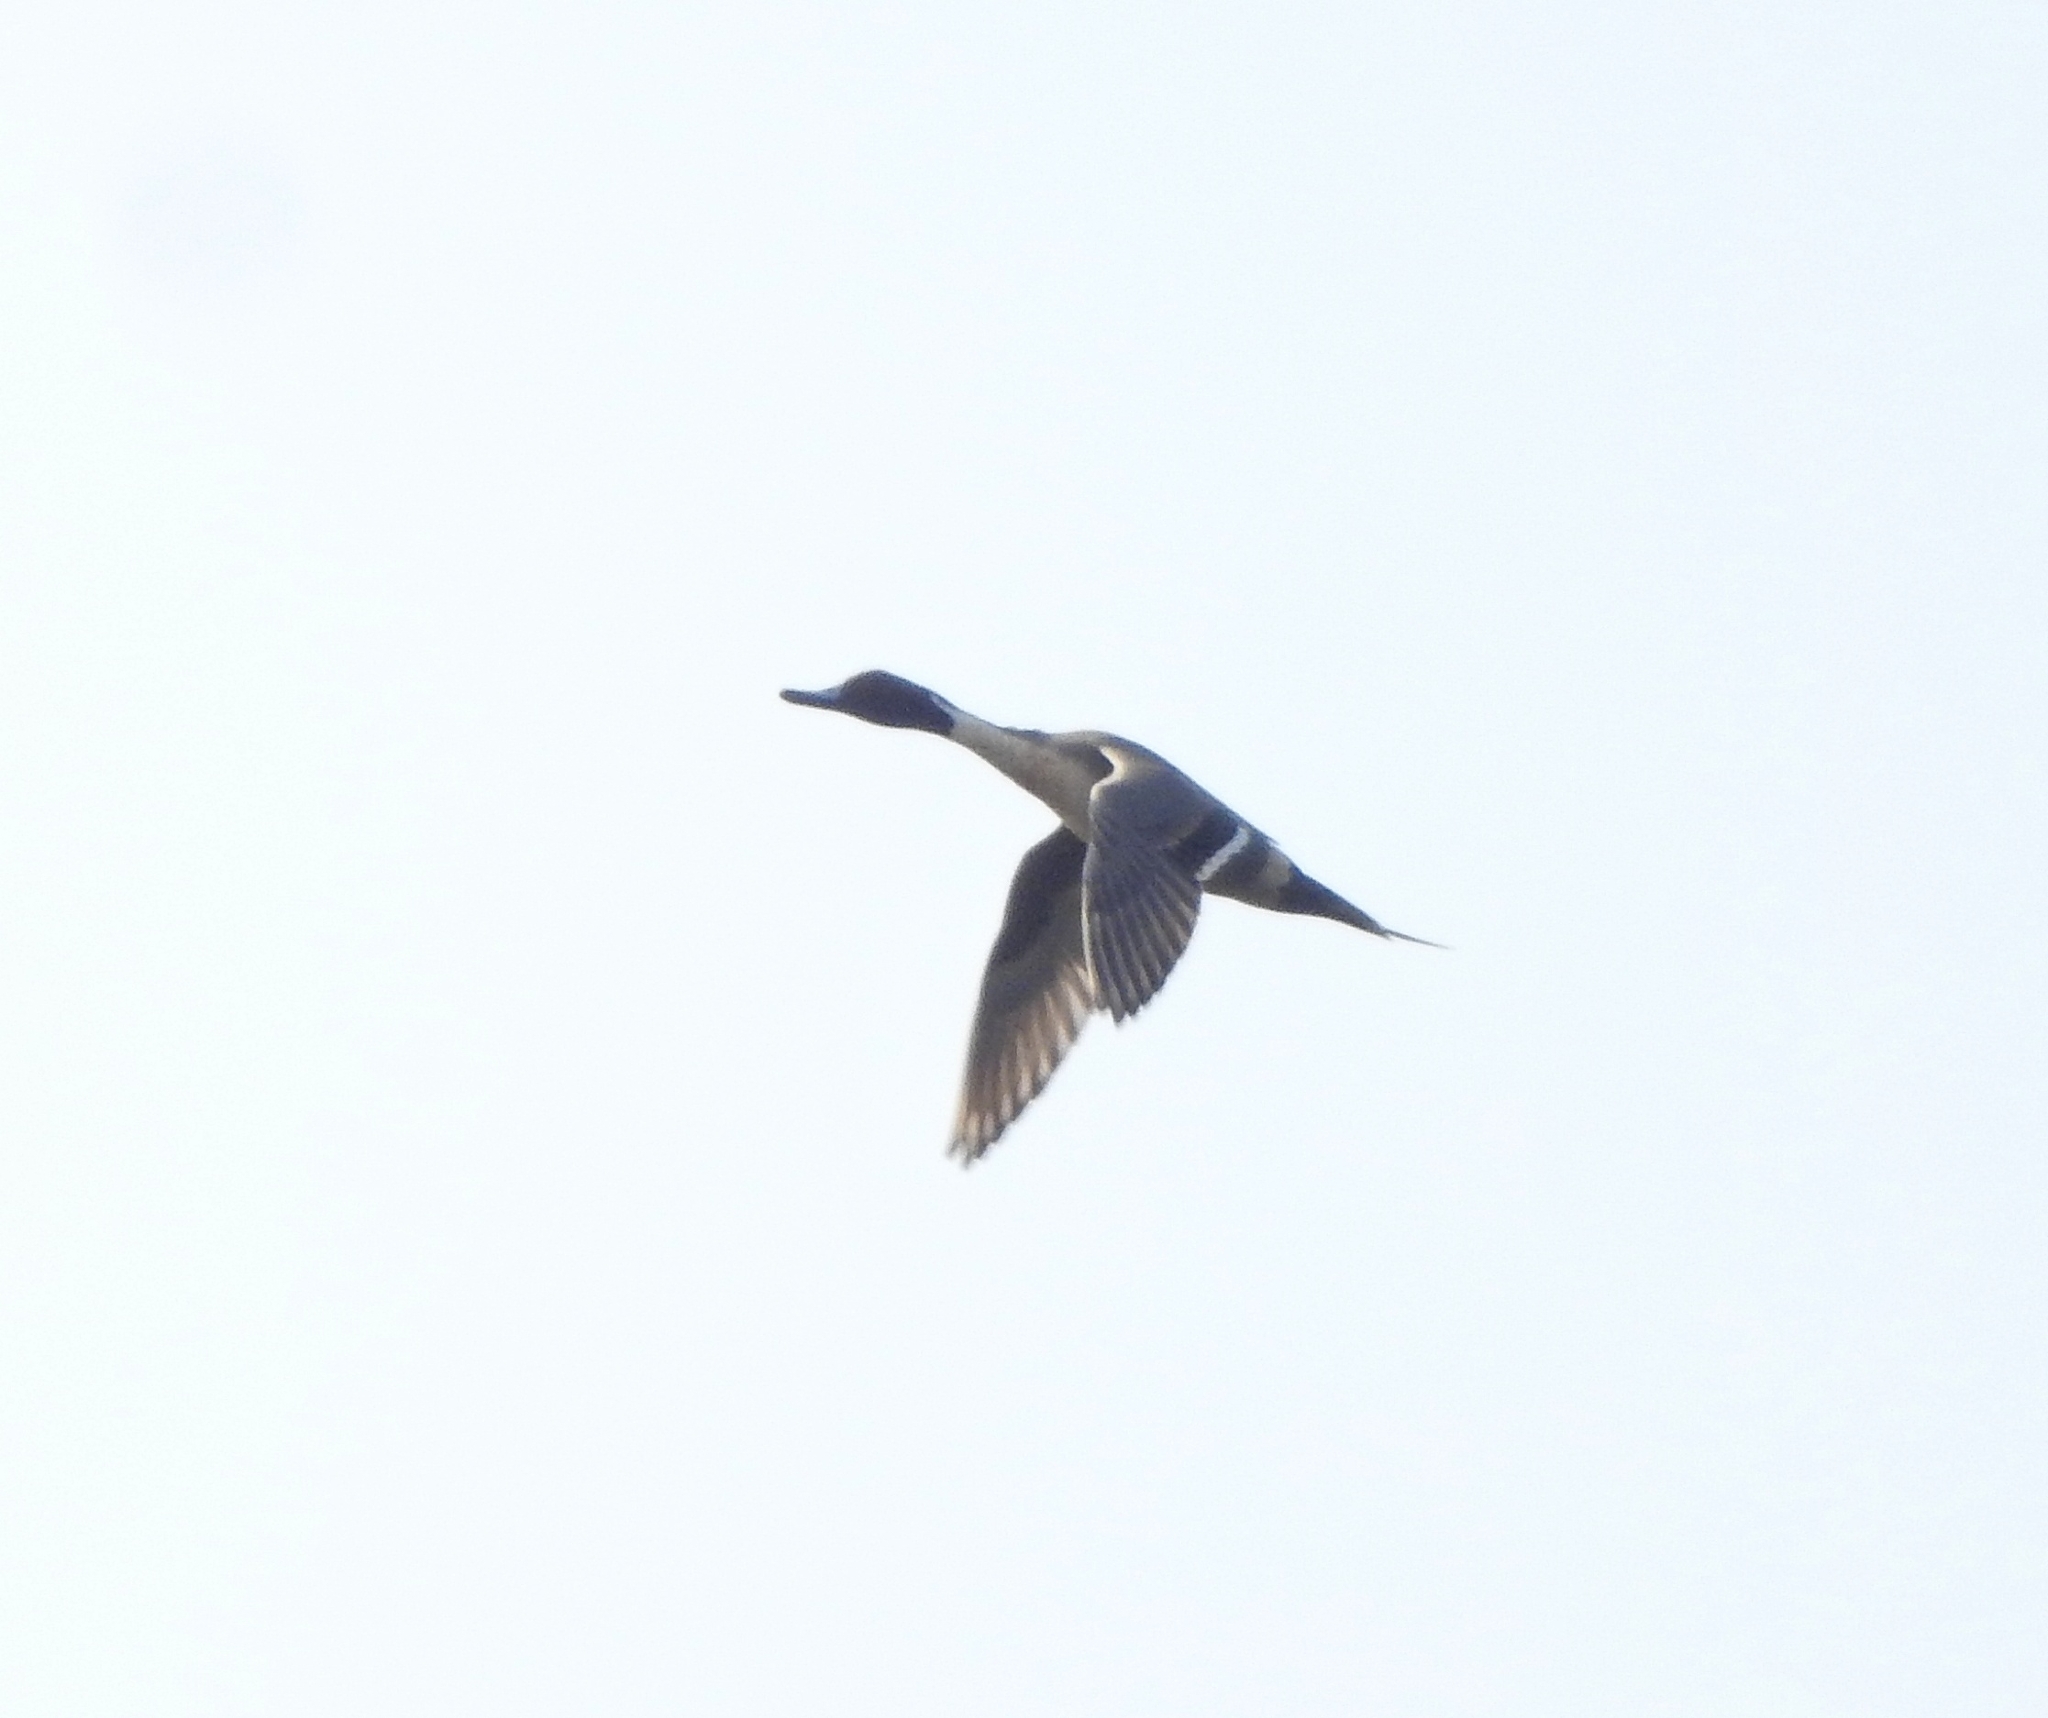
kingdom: Animalia
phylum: Chordata
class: Aves
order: Anseriformes
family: Anatidae
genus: Anas
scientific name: Anas acuta
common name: Northern pintail
